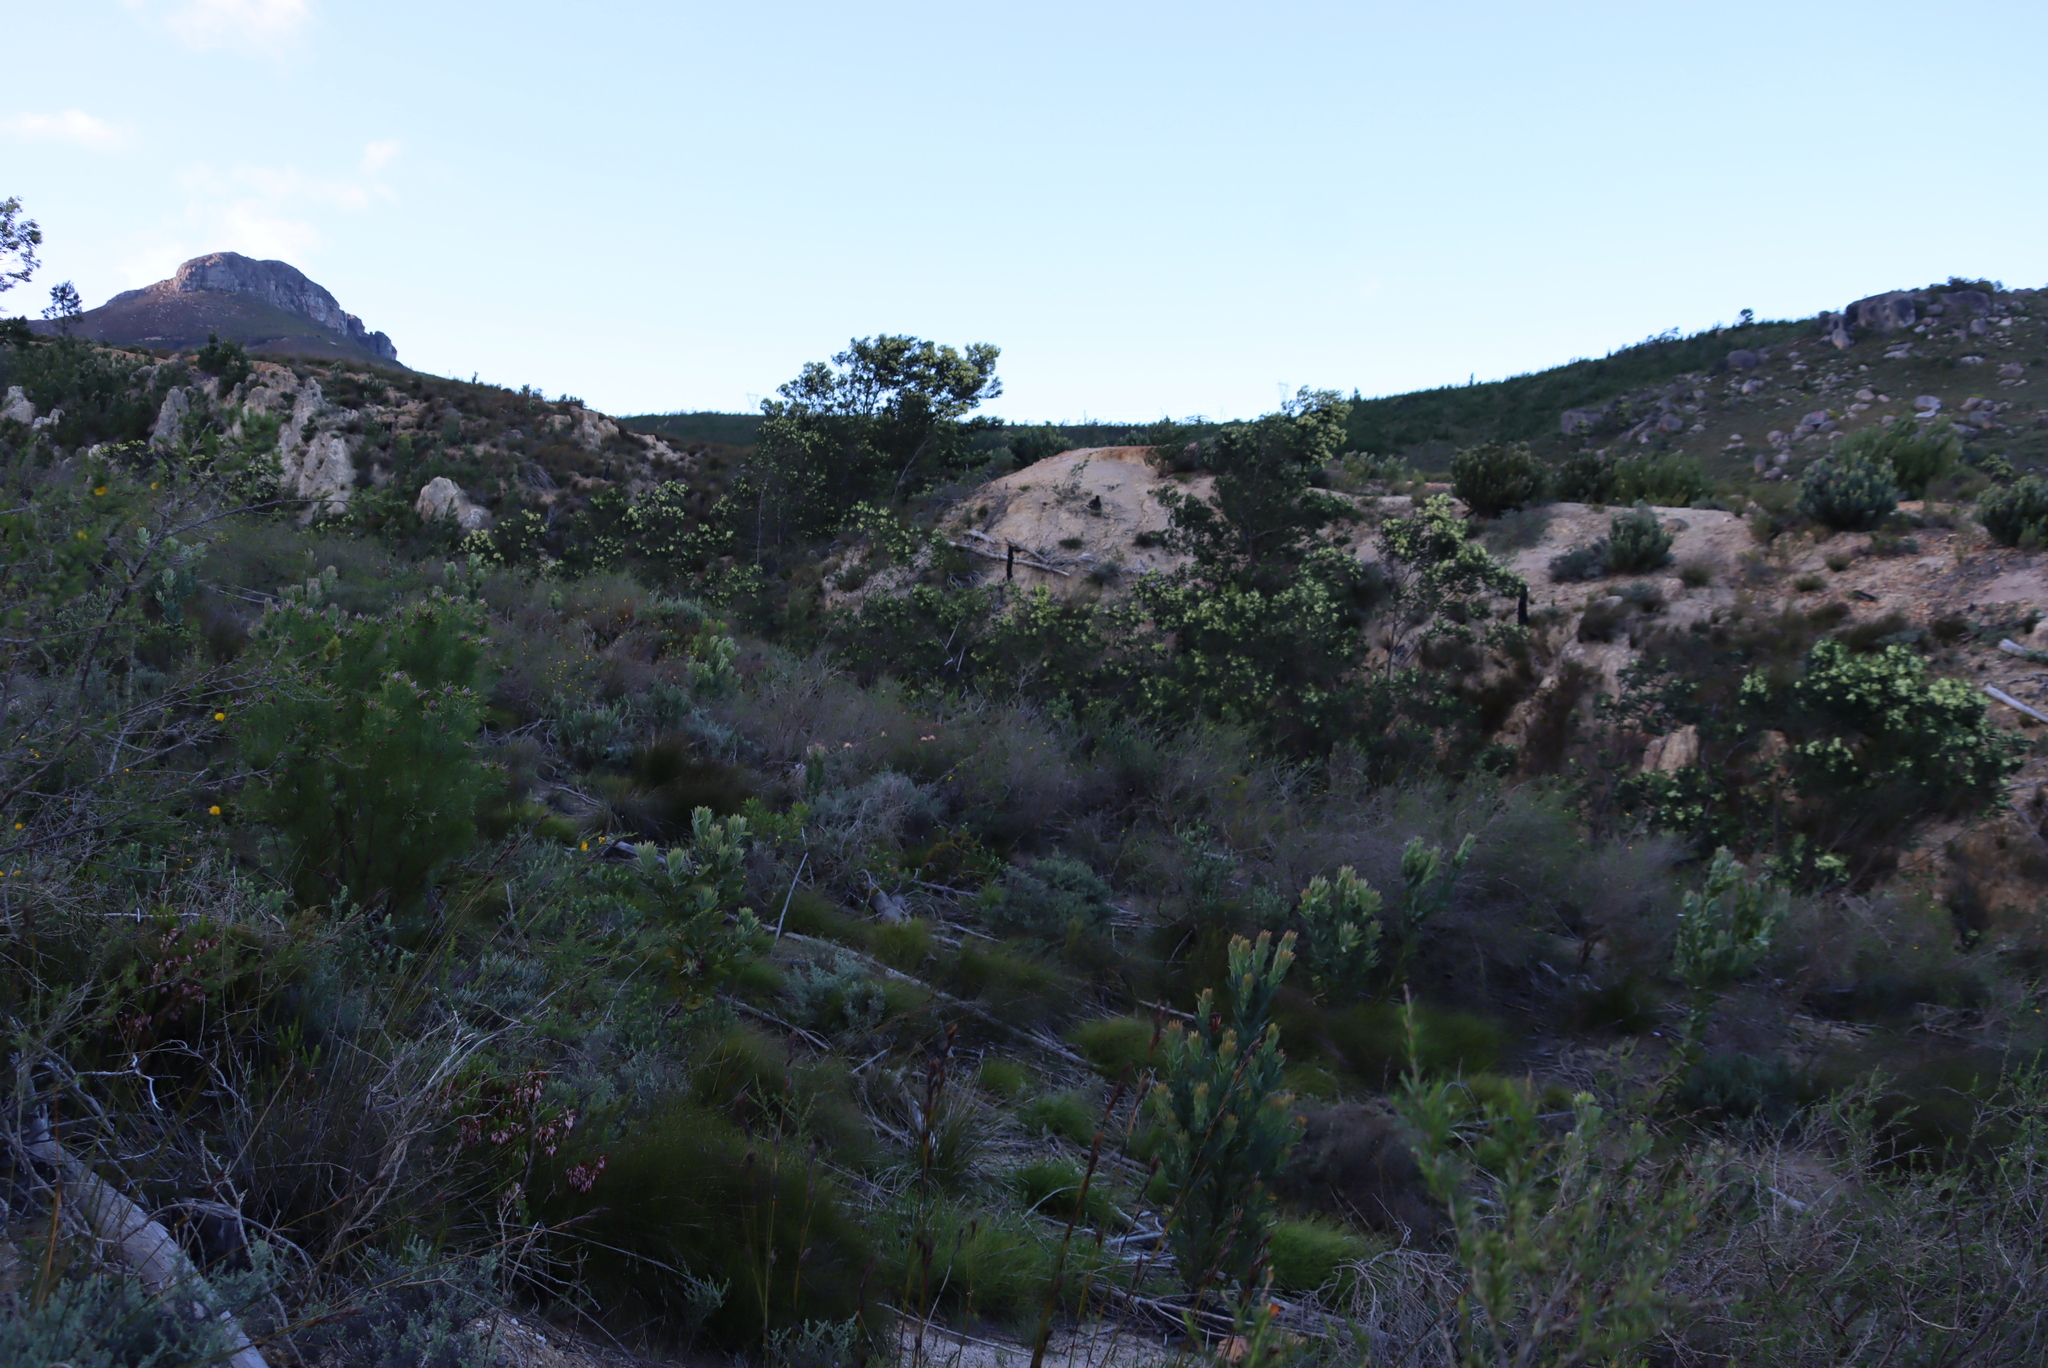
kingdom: Plantae
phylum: Tracheophyta
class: Magnoliopsida
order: Fabales
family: Fabaceae
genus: Acacia
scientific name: Acacia mearnsii
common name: Black wattle
